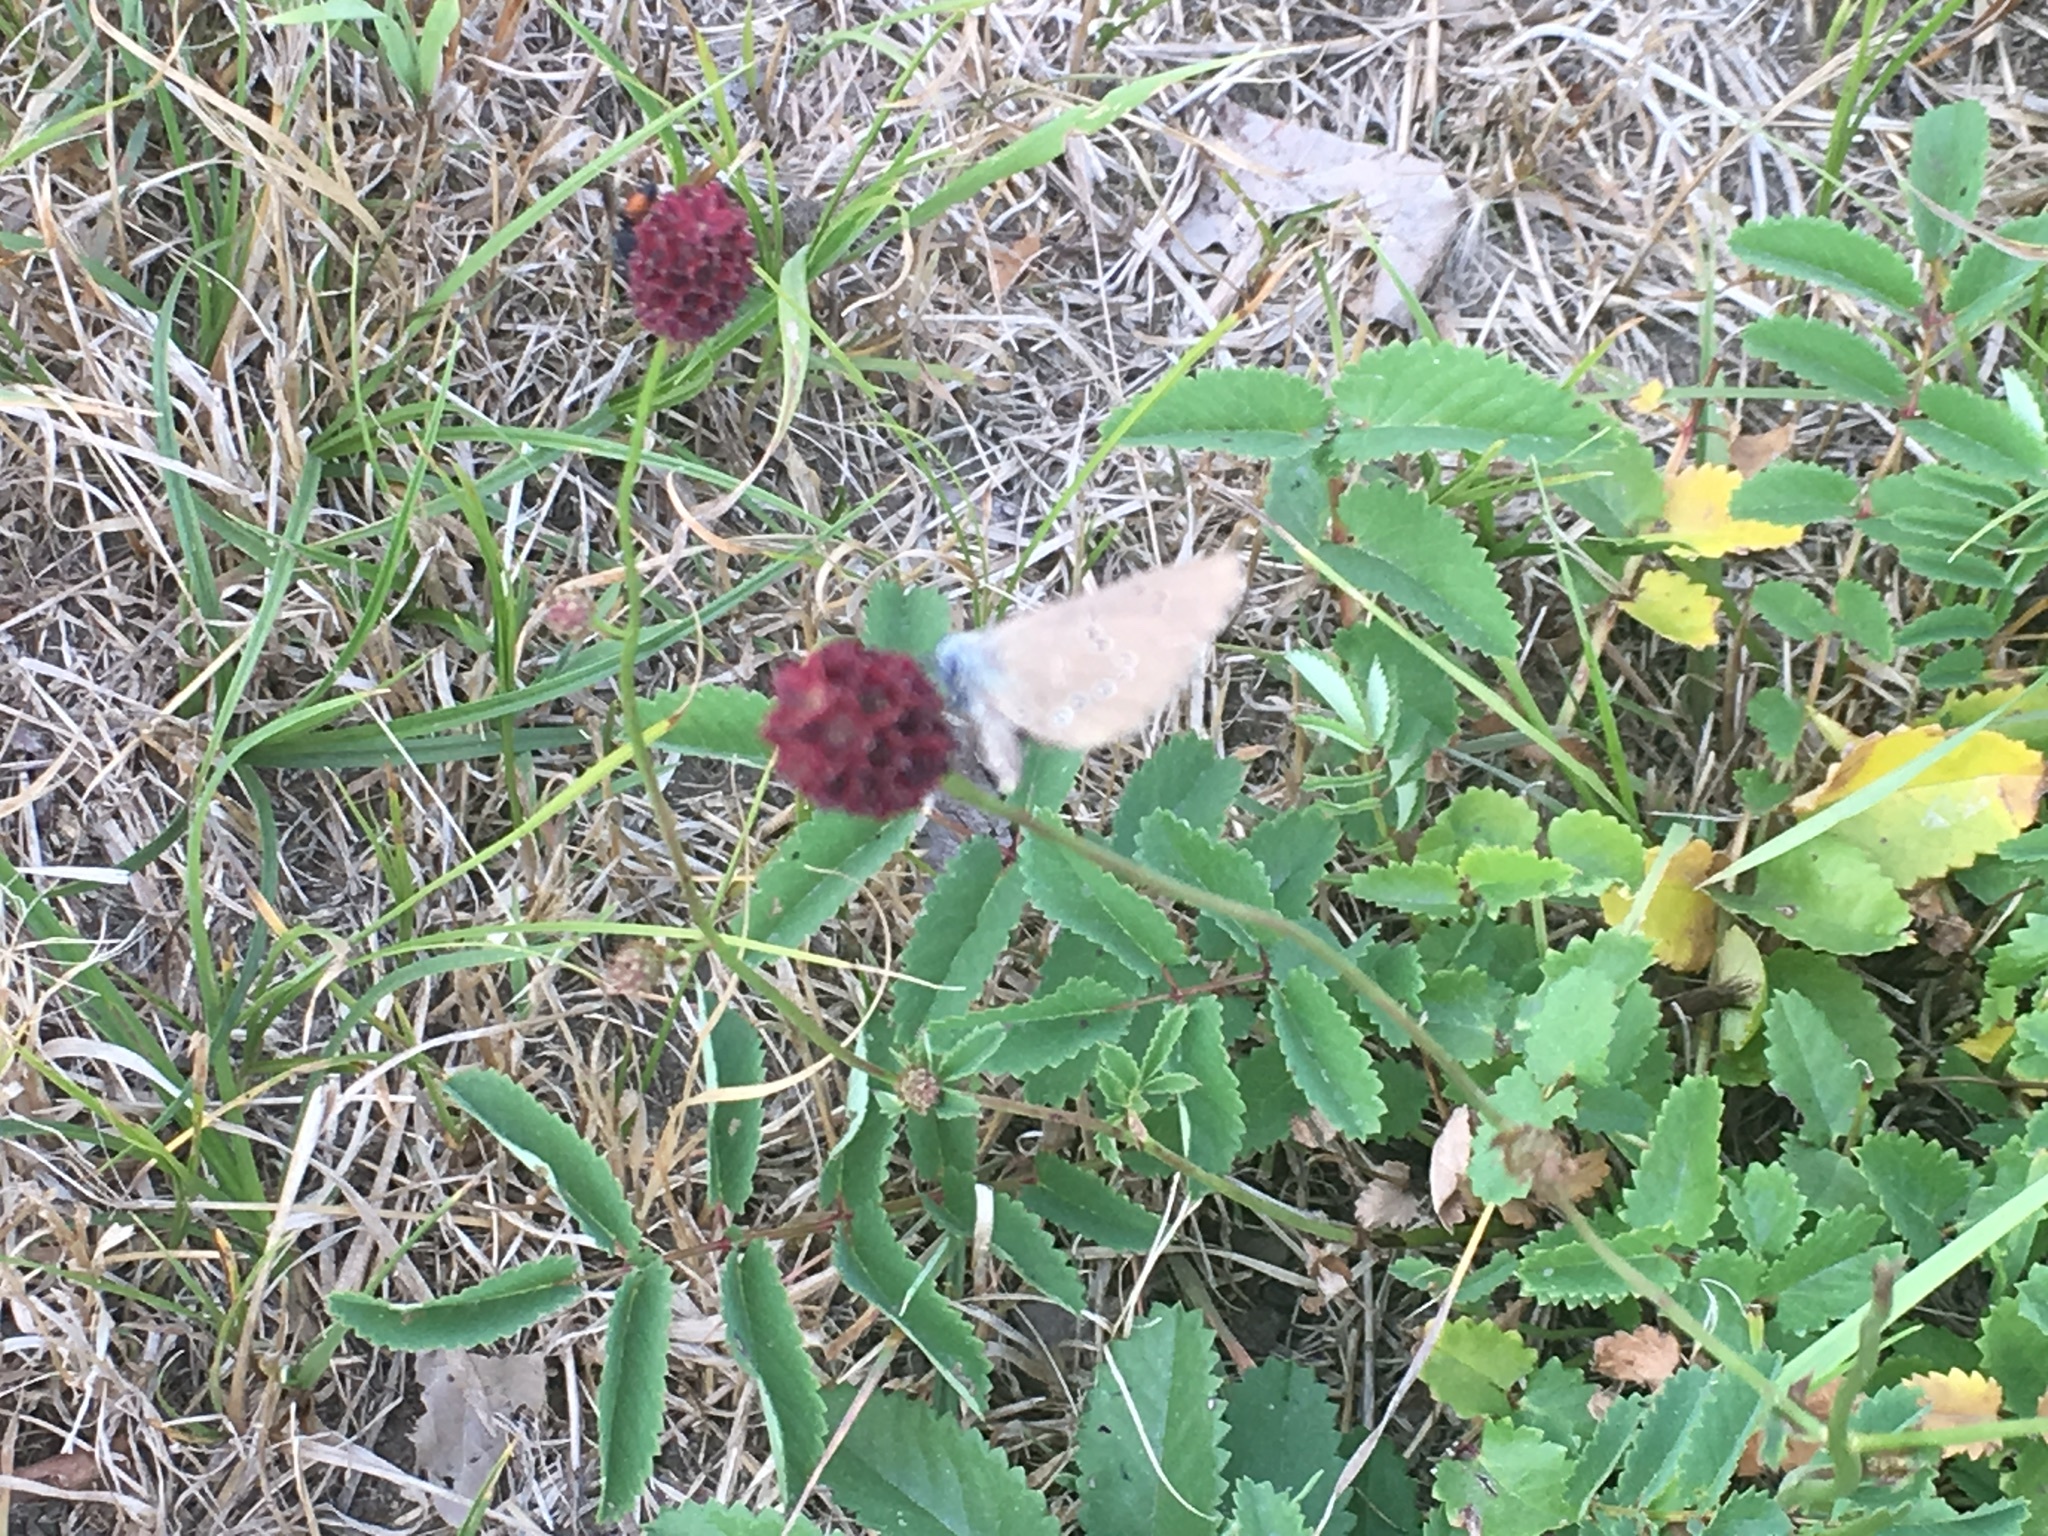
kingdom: Plantae
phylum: Tracheophyta
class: Magnoliopsida
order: Rosales
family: Rosaceae
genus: Sanguisorba
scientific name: Sanguisorba officinalis
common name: Great burnet
